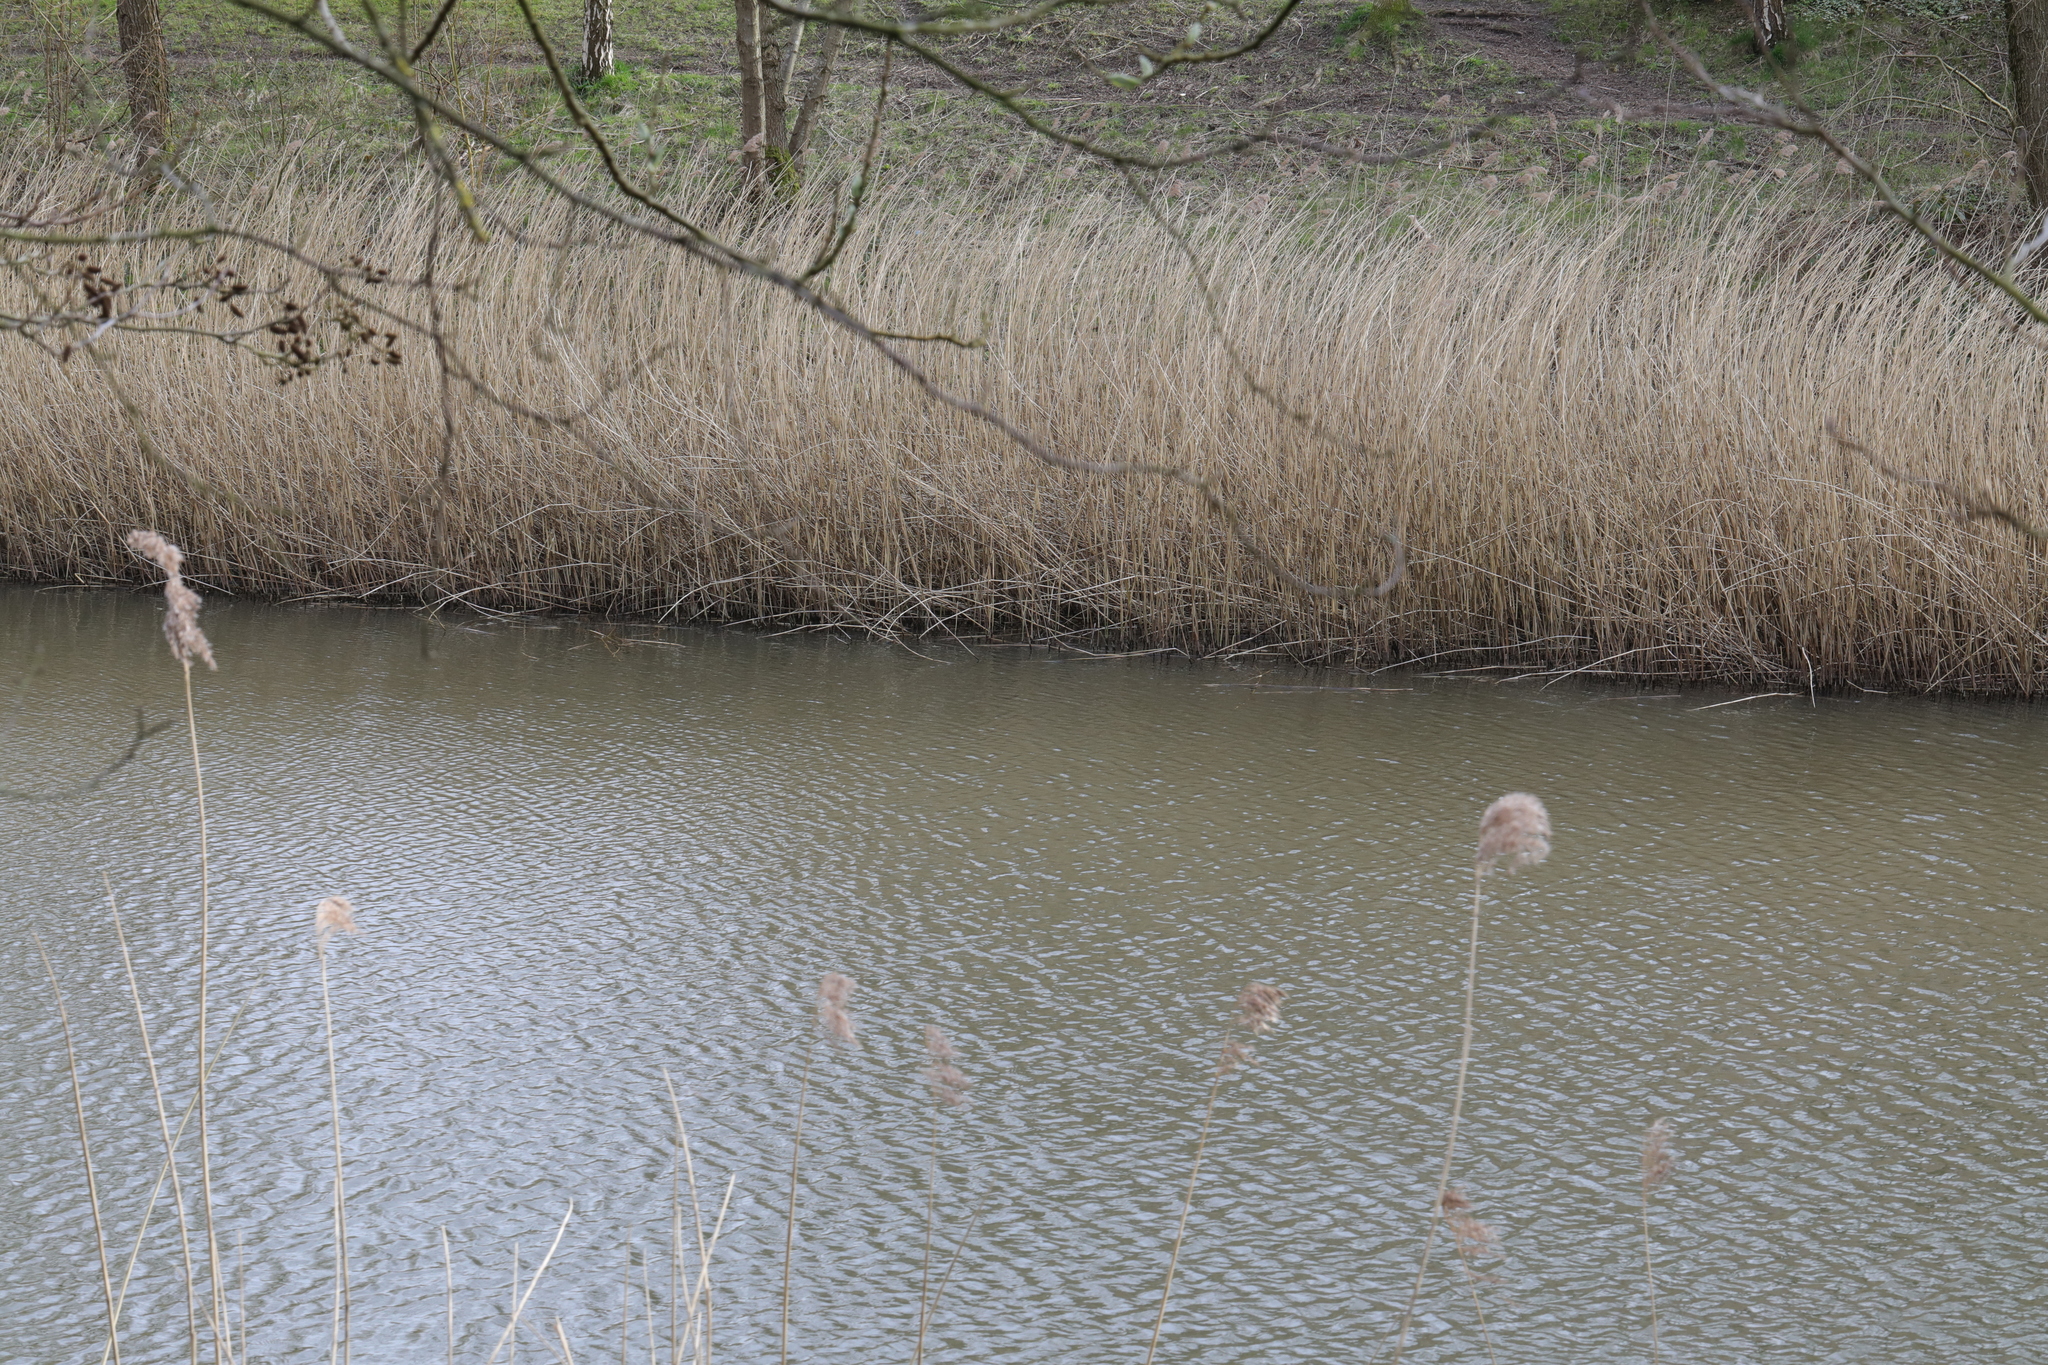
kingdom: Plantae
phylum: Tracheophyta
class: Liliopsida
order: Poales
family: Poaceae
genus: Phragmites
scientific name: Phragmites australis
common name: Common reed
